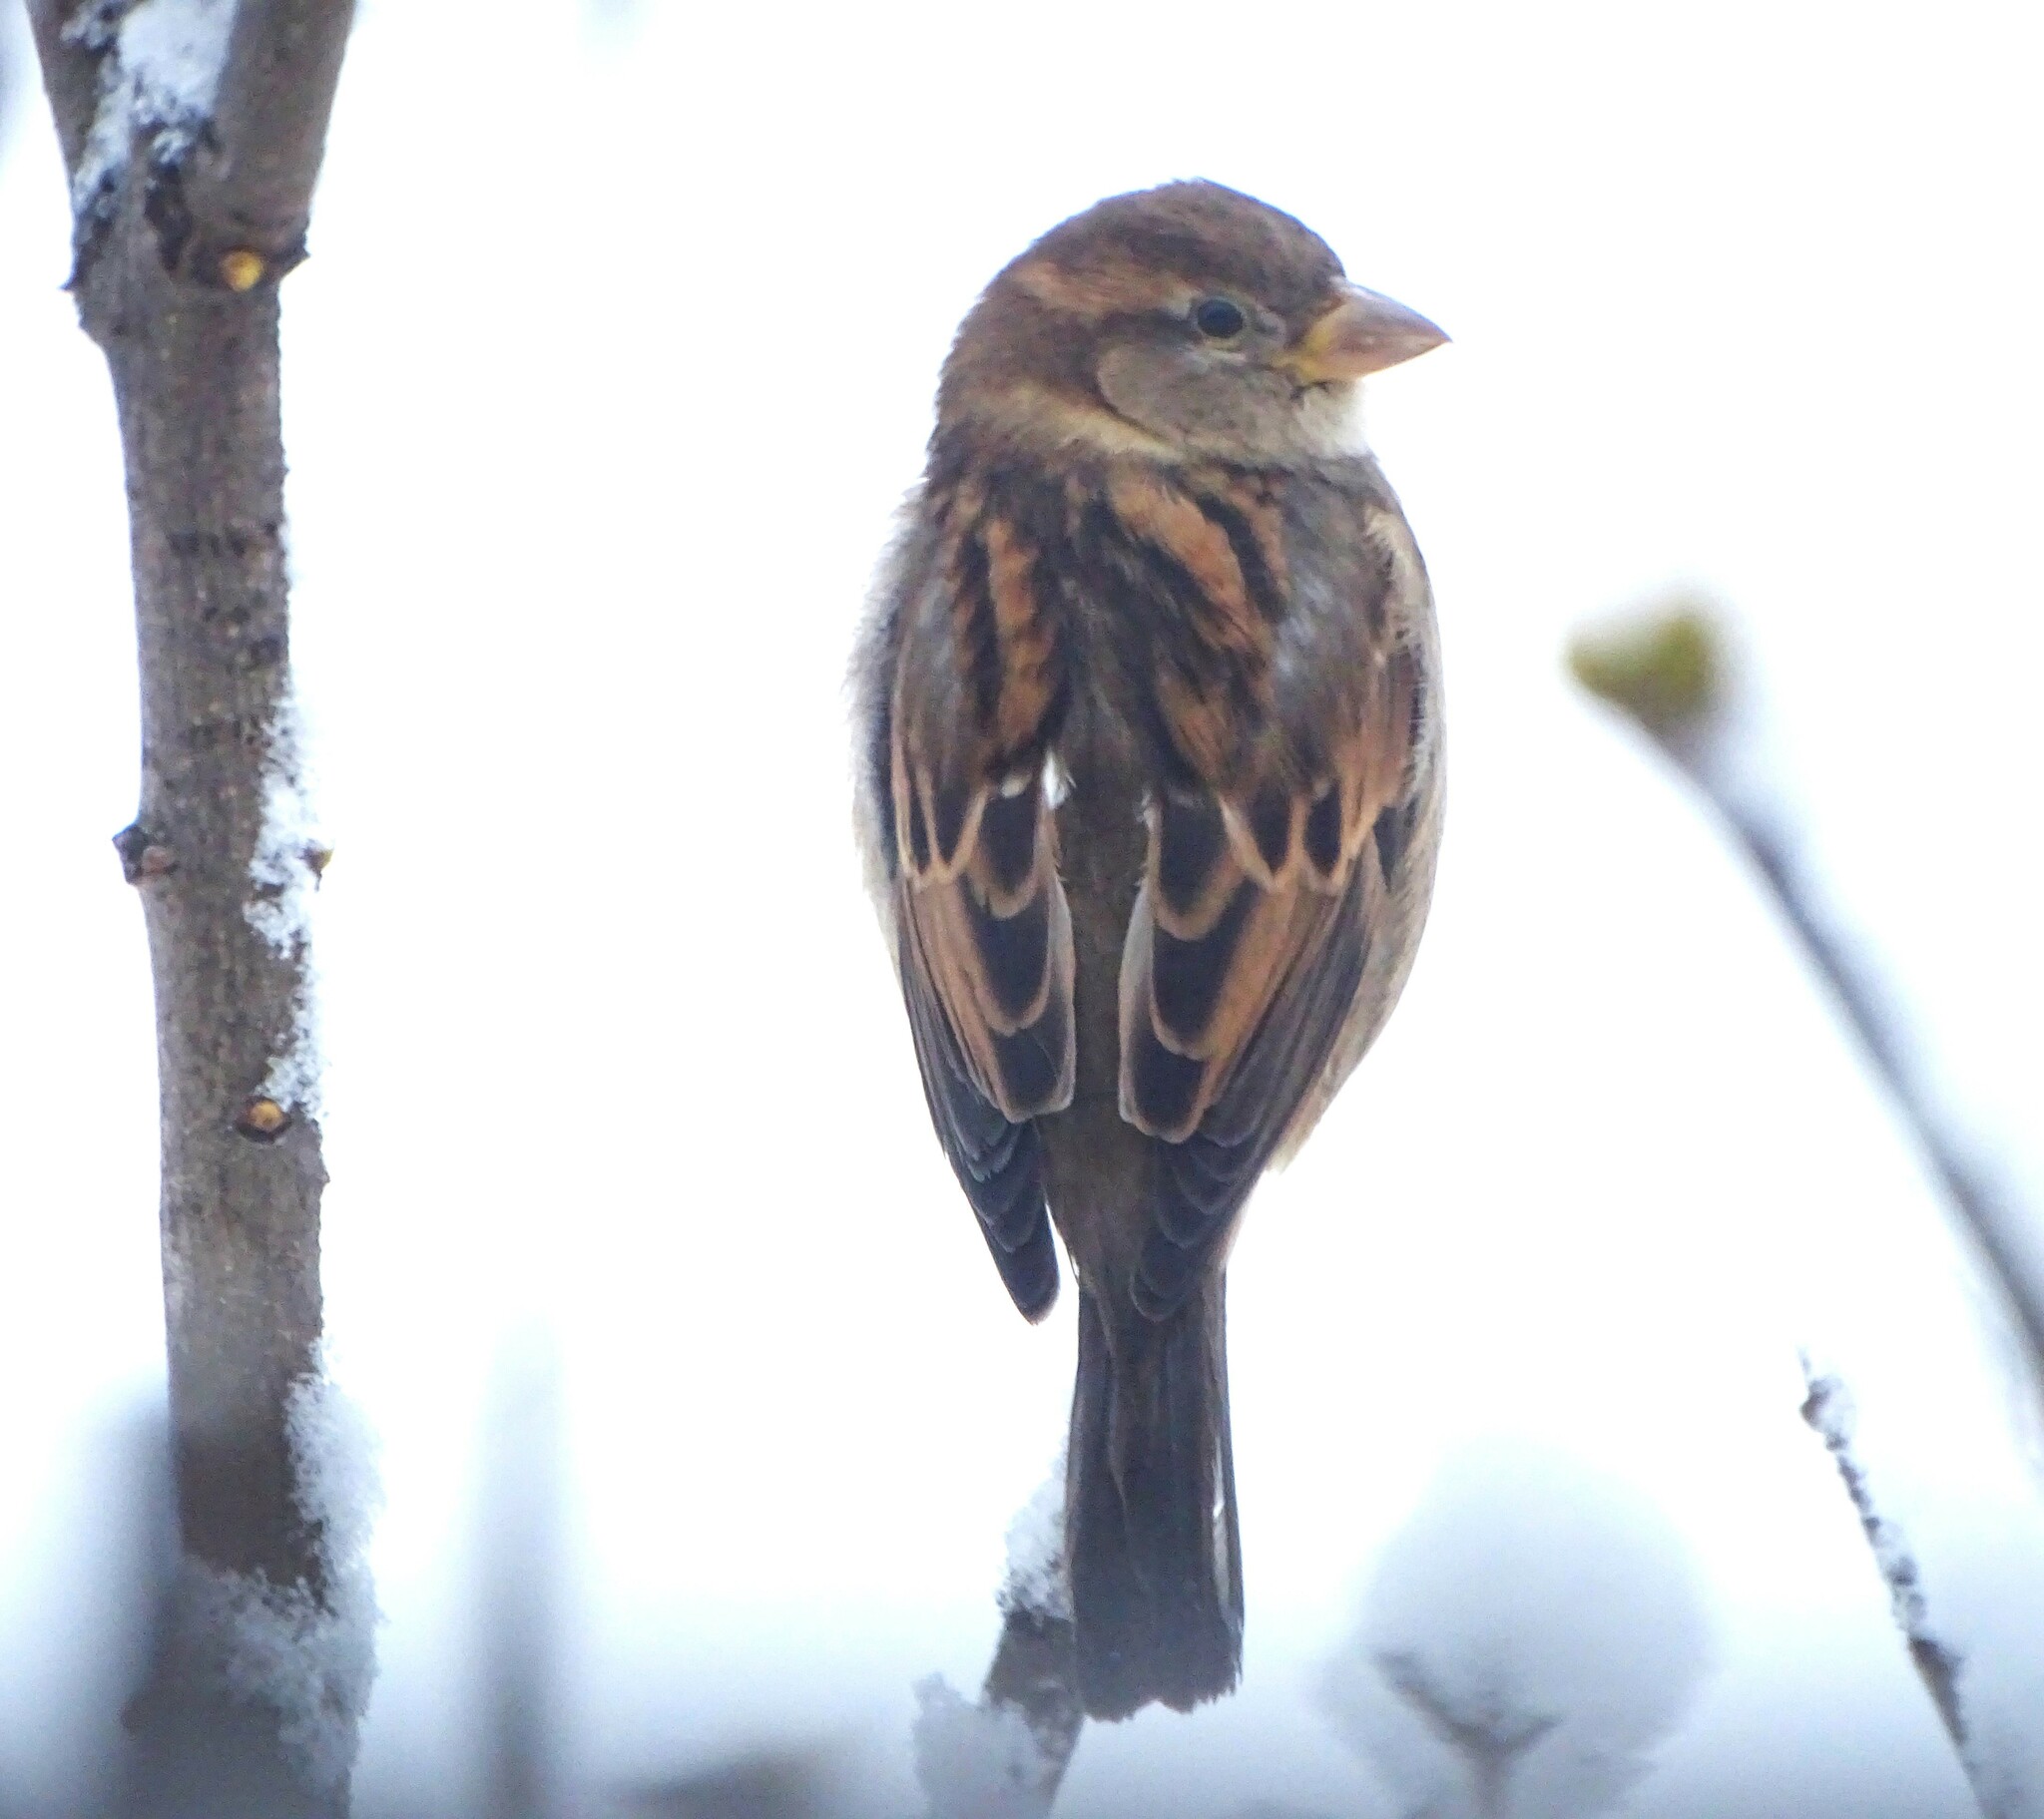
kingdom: Animalia
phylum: Chordata
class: Aves
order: Passeriformes
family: Passeridae
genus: Passer
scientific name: Passer domesticus
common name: House sparrow
